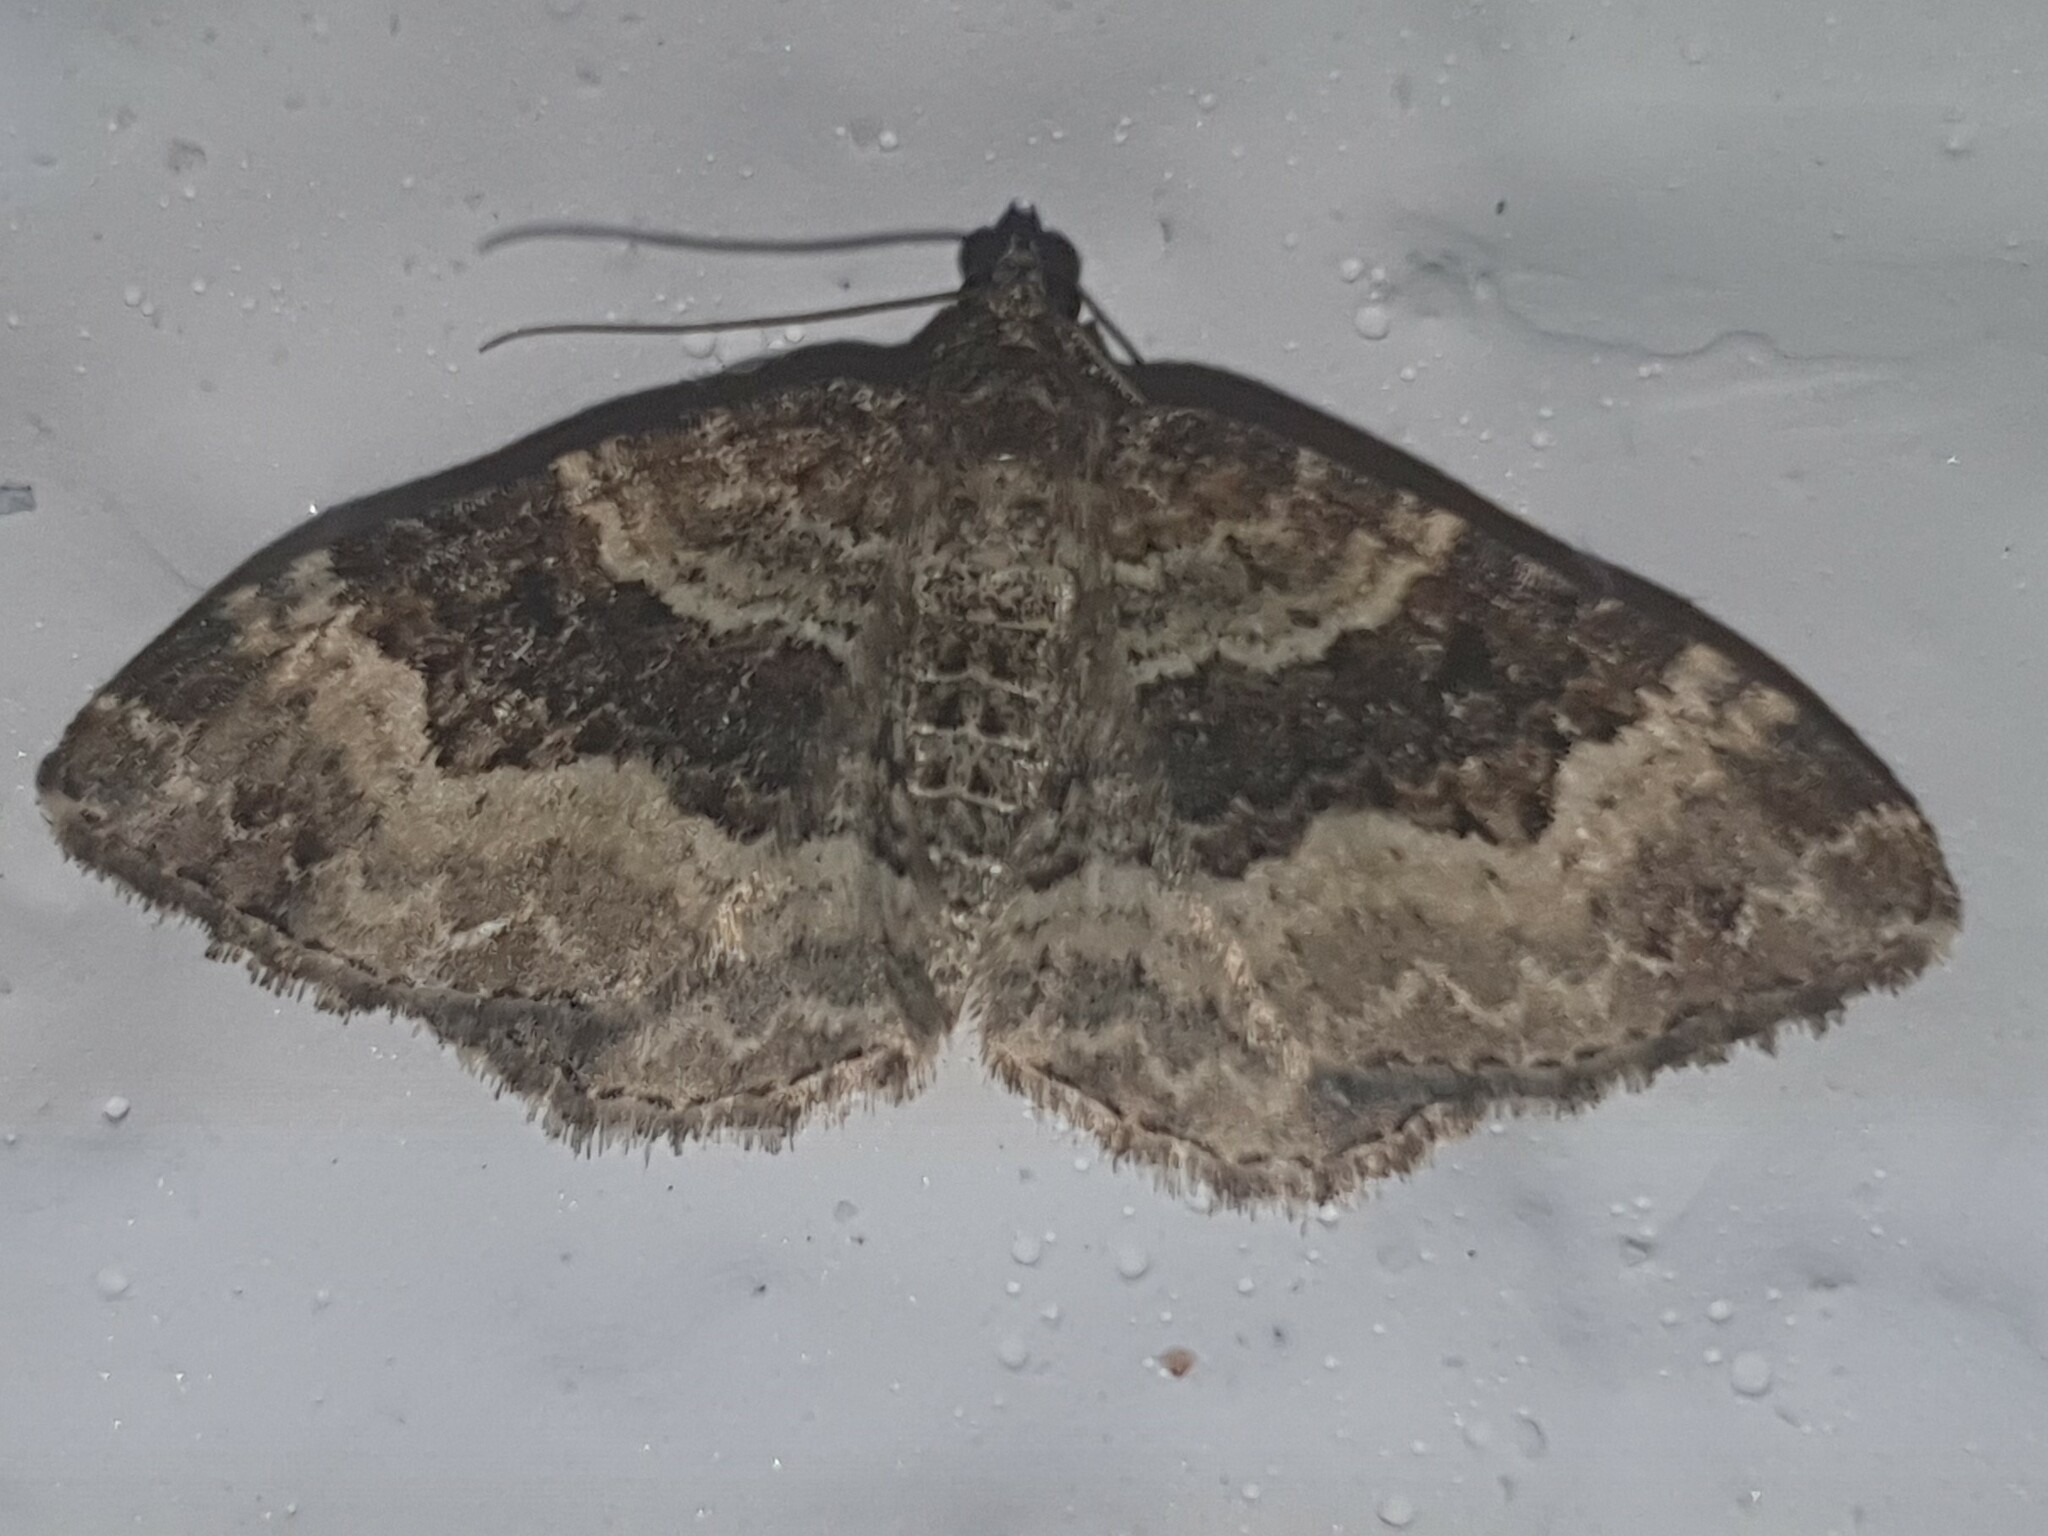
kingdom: Animalia
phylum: Arthropoda
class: Insecta
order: Lepidoptera
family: Geometridae
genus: Epirrhoe
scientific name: Epirrhoe alternata
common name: Common carpet
